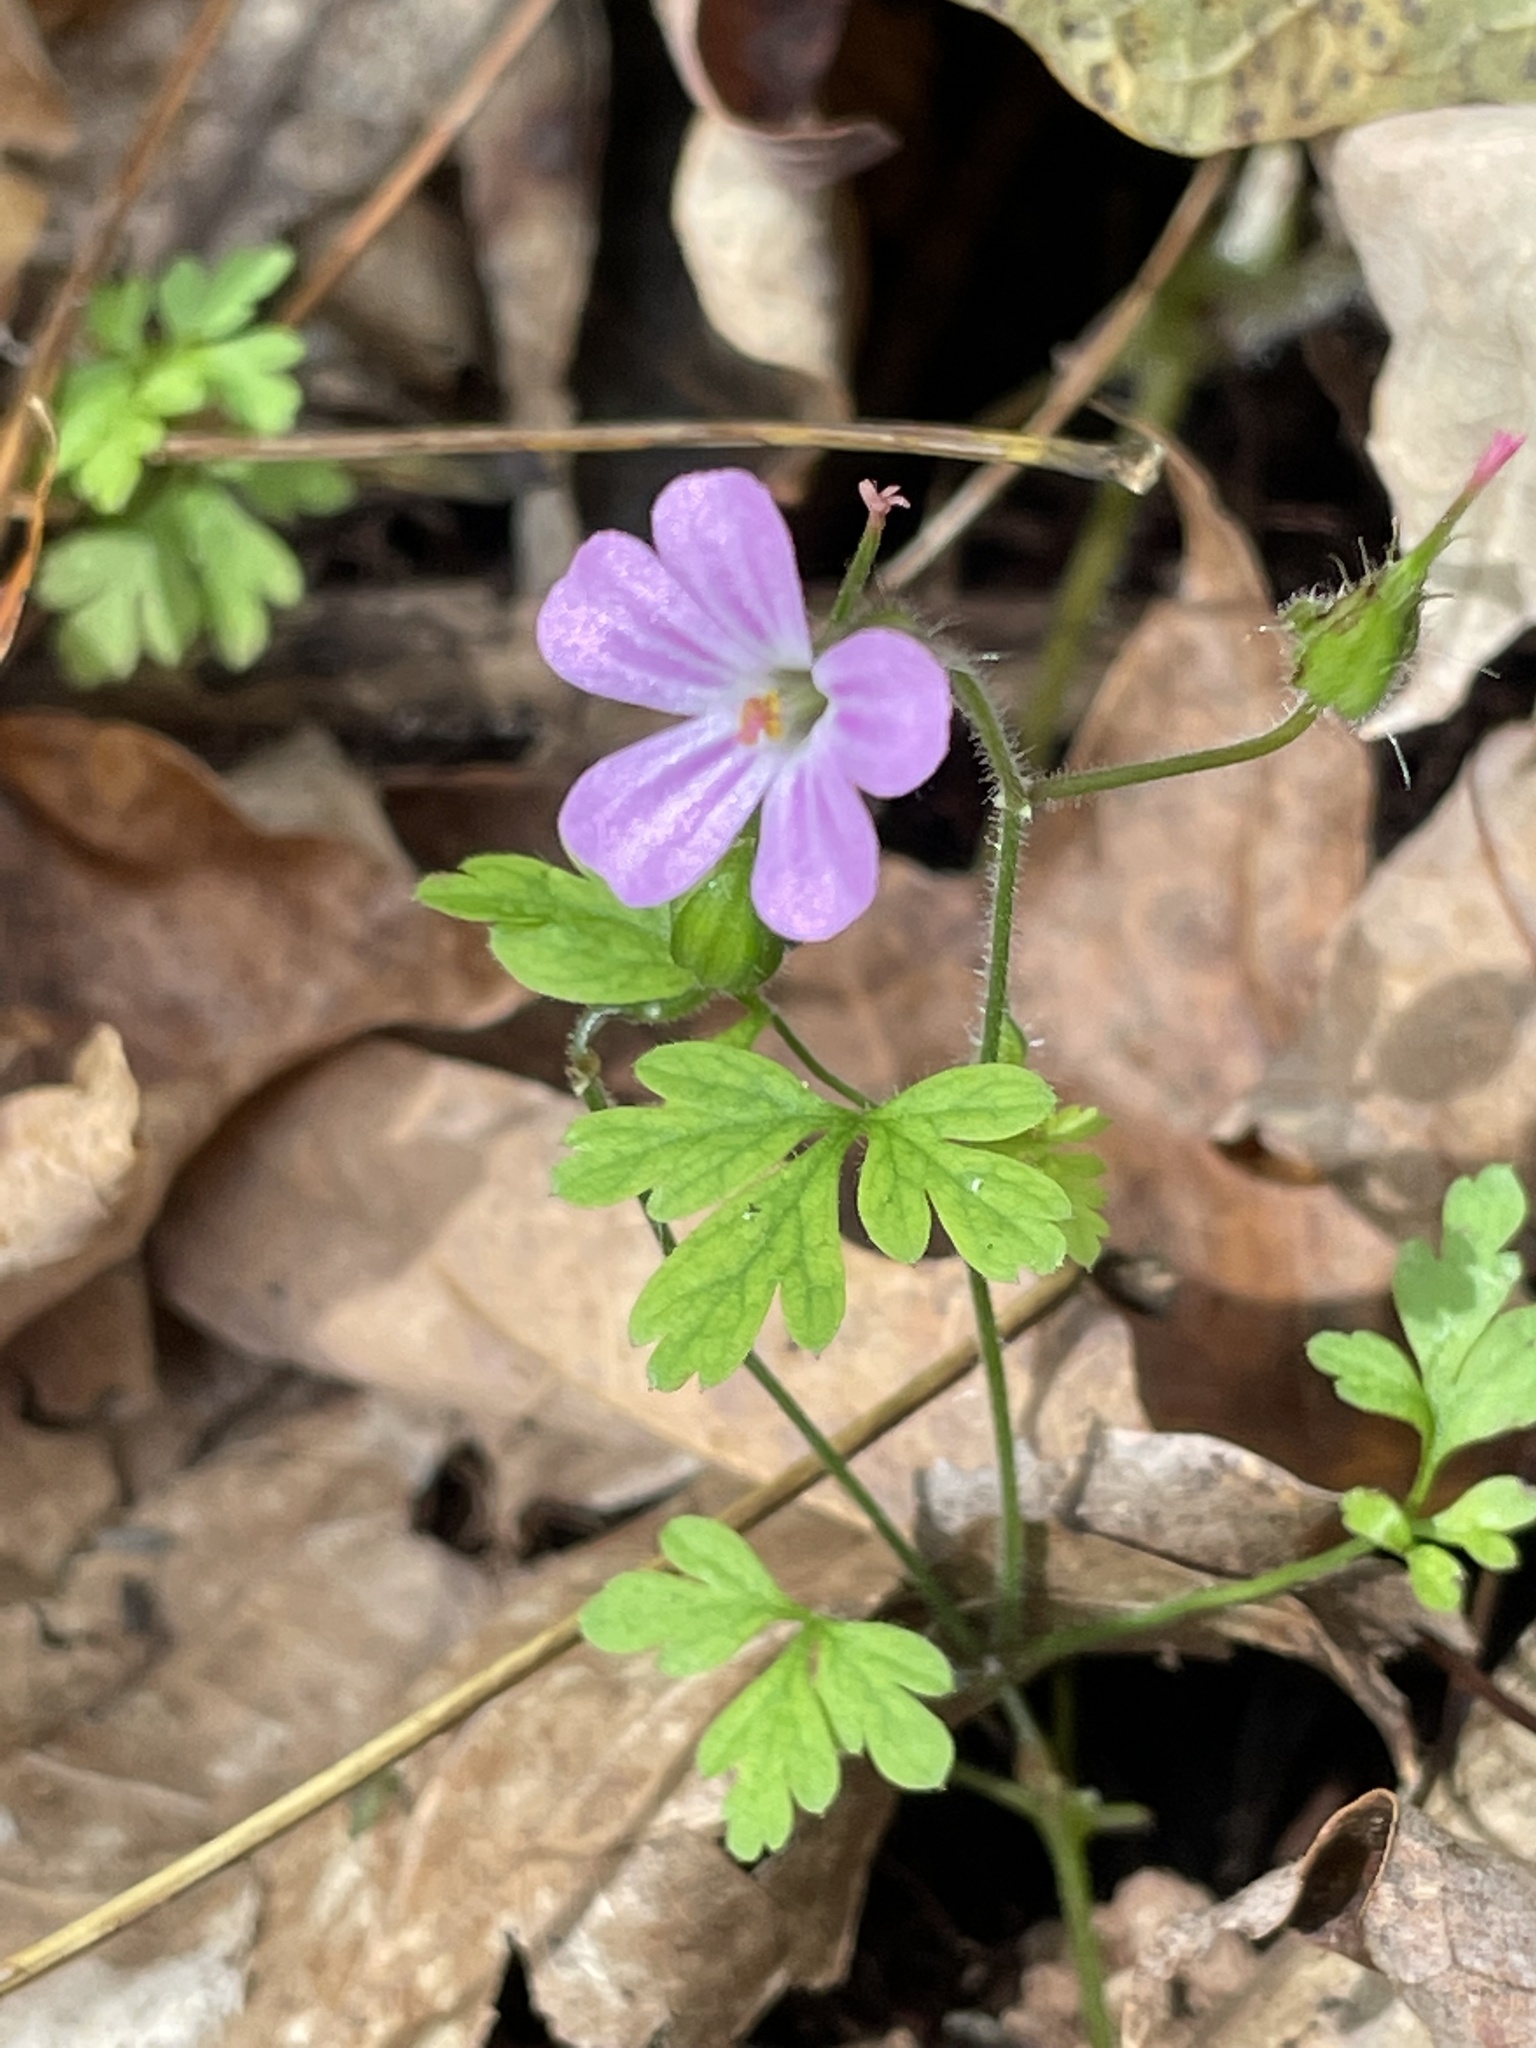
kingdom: Plantae
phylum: Tracheophyta
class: Magnoliopsida
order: Geraniales
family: Geraniaceae
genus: Geranium
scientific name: Geranium robertianum
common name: Herb-robert
